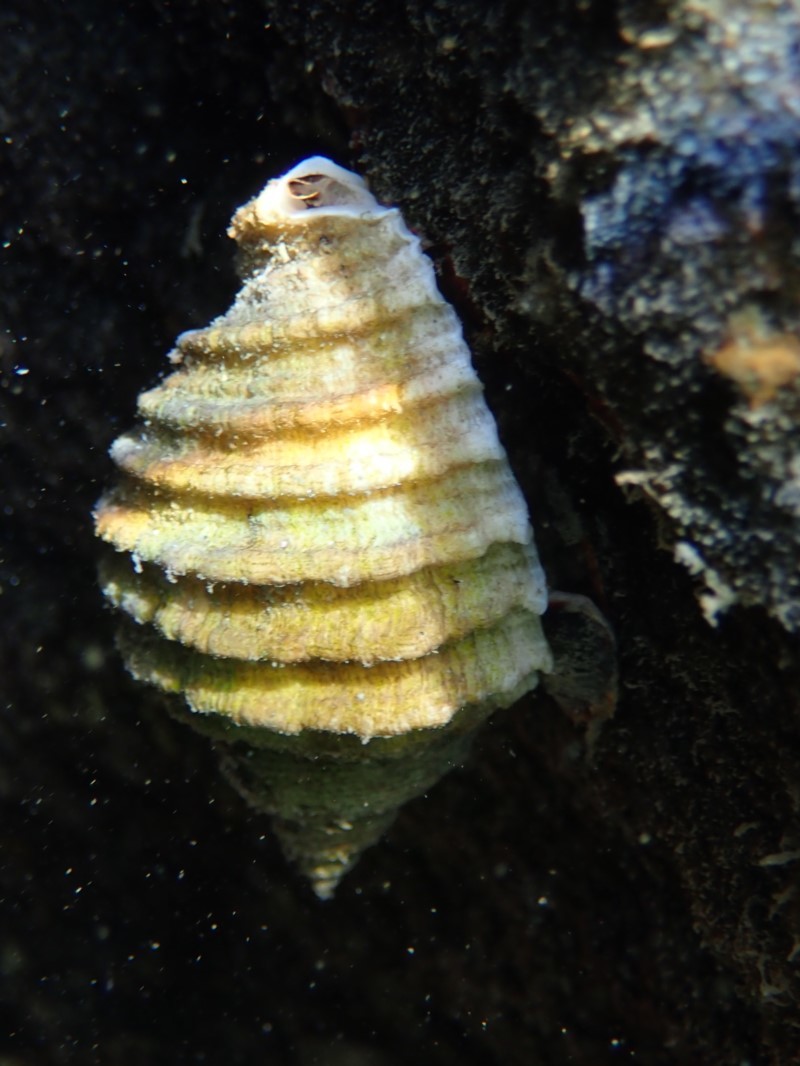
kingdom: Animalia
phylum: Mollusca
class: Gastropoda
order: Neogastropoda
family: Muricidae
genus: Dicathais
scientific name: Dicathais orbita
